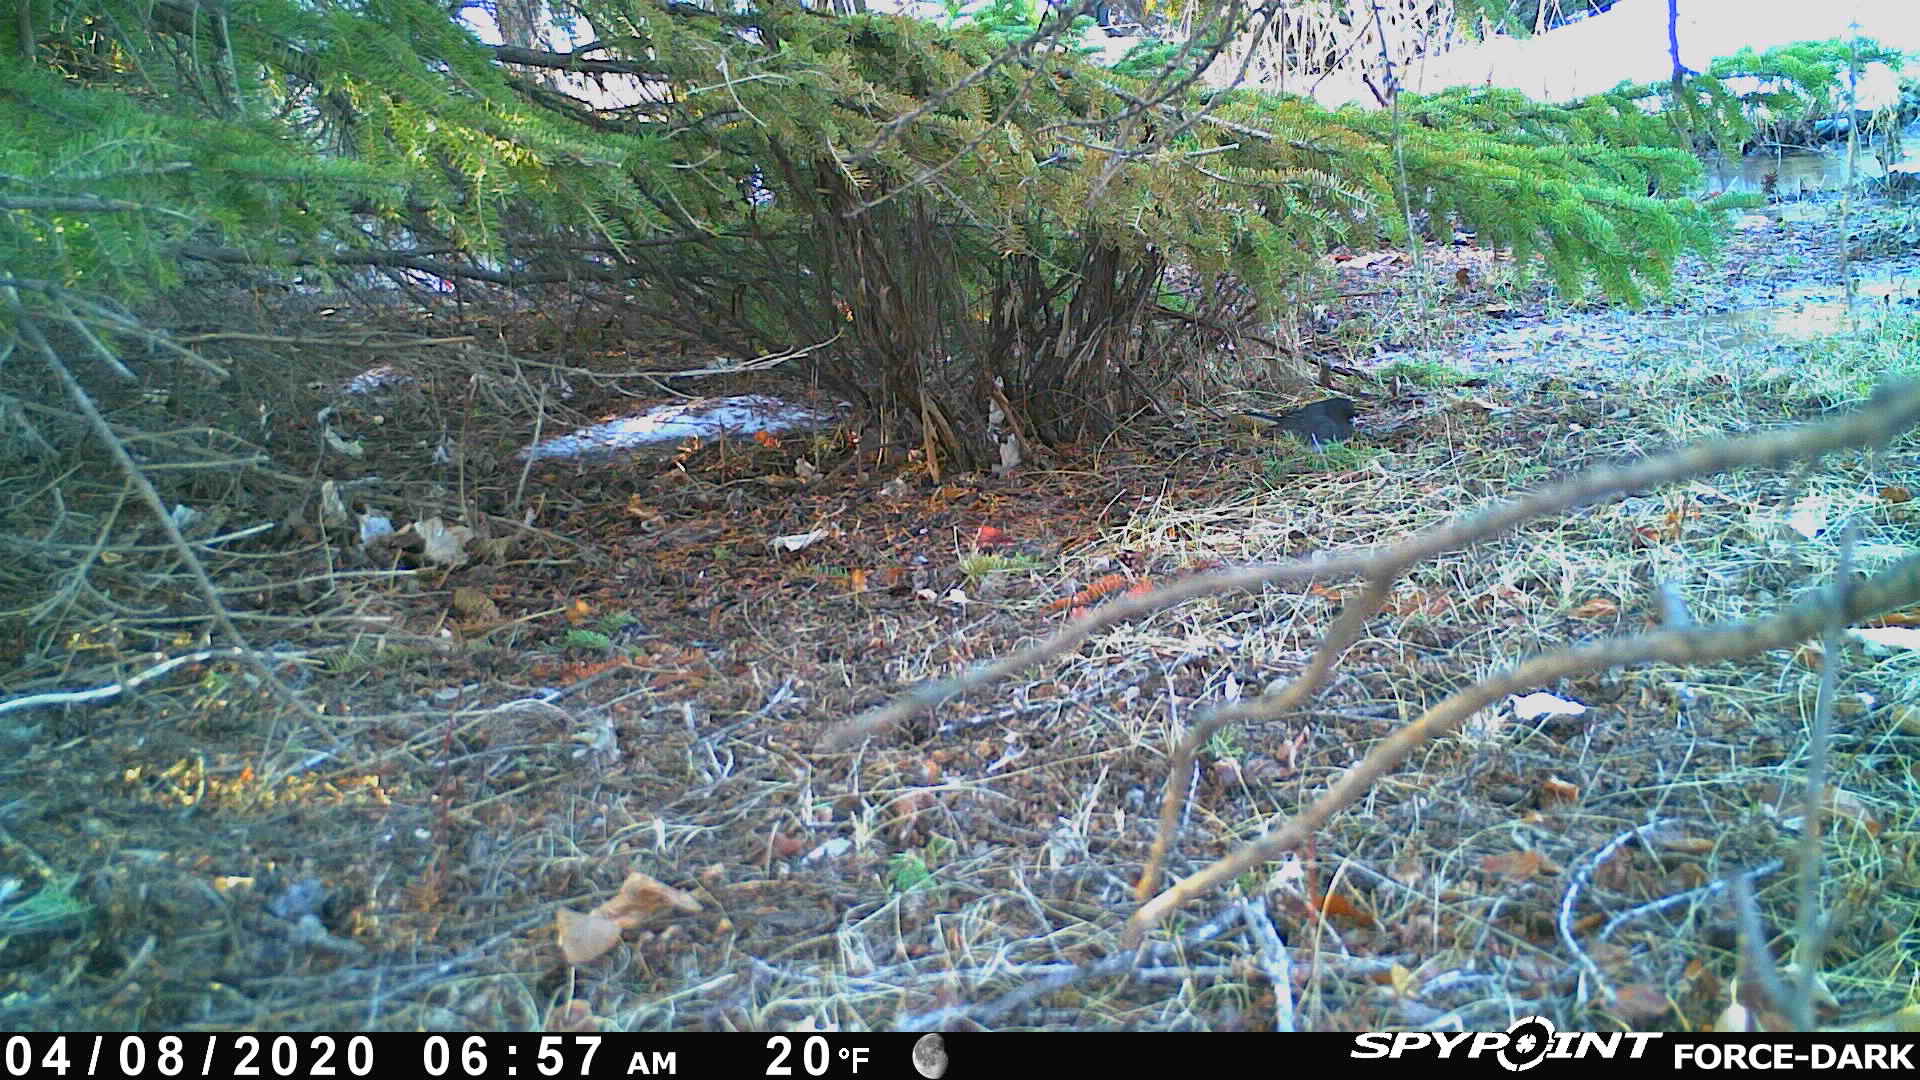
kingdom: Animalia
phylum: Chordata
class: Aves
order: Passeriformes
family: Passerellidae
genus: Junco
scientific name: Junco hyemalis
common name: Dark-eyed junco
